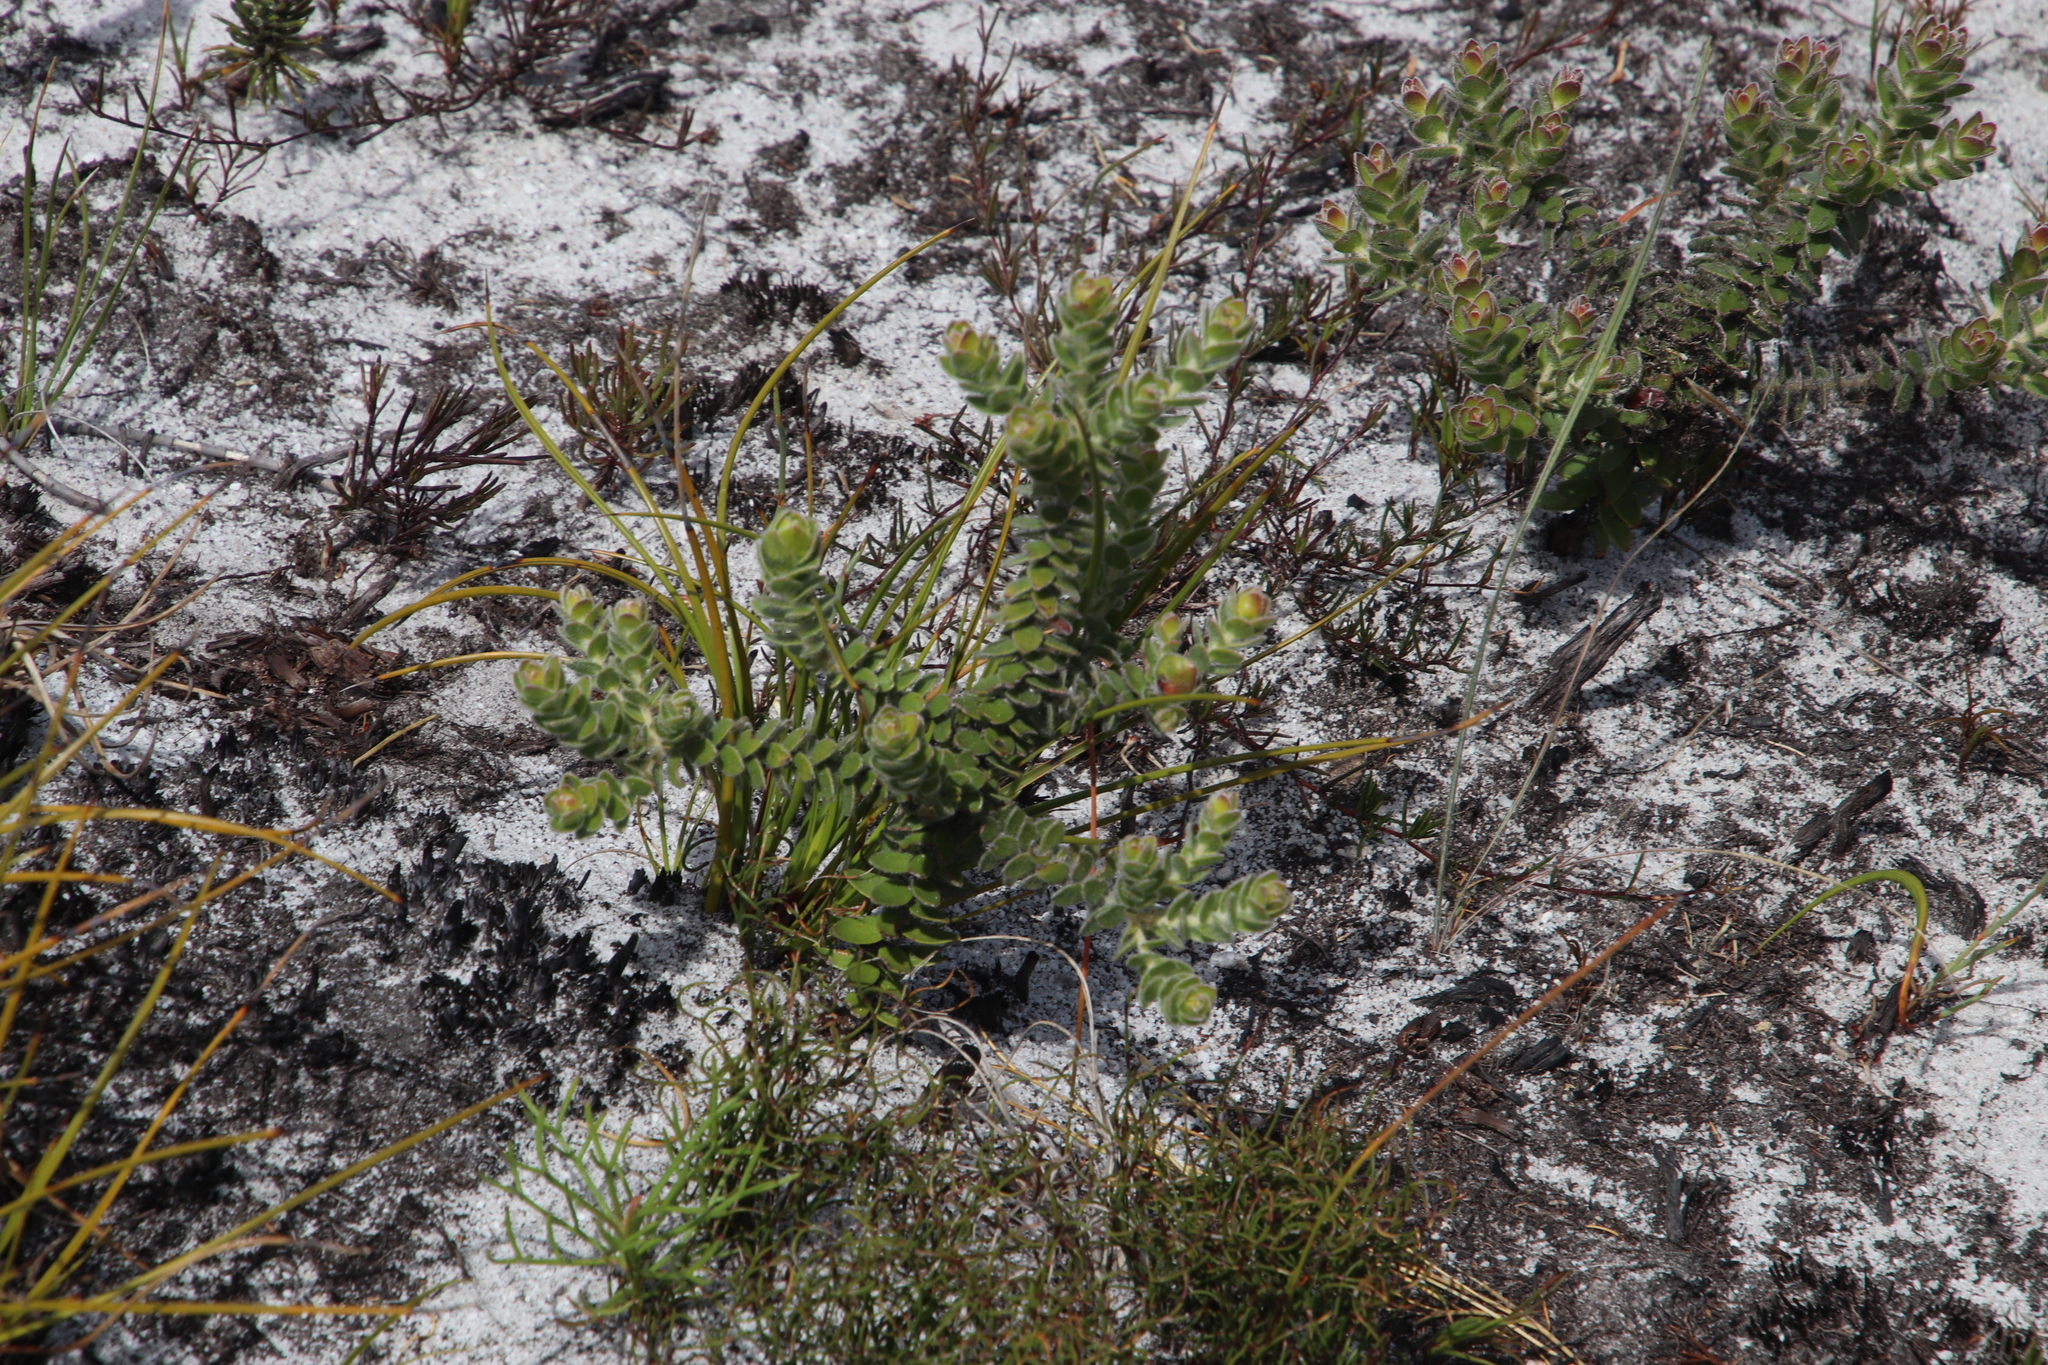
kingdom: Plantae
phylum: Tracheophyta
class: Magnoliopsida
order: Proteales
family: Proteaceae
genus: Diastella
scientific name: Diastella divaricata
